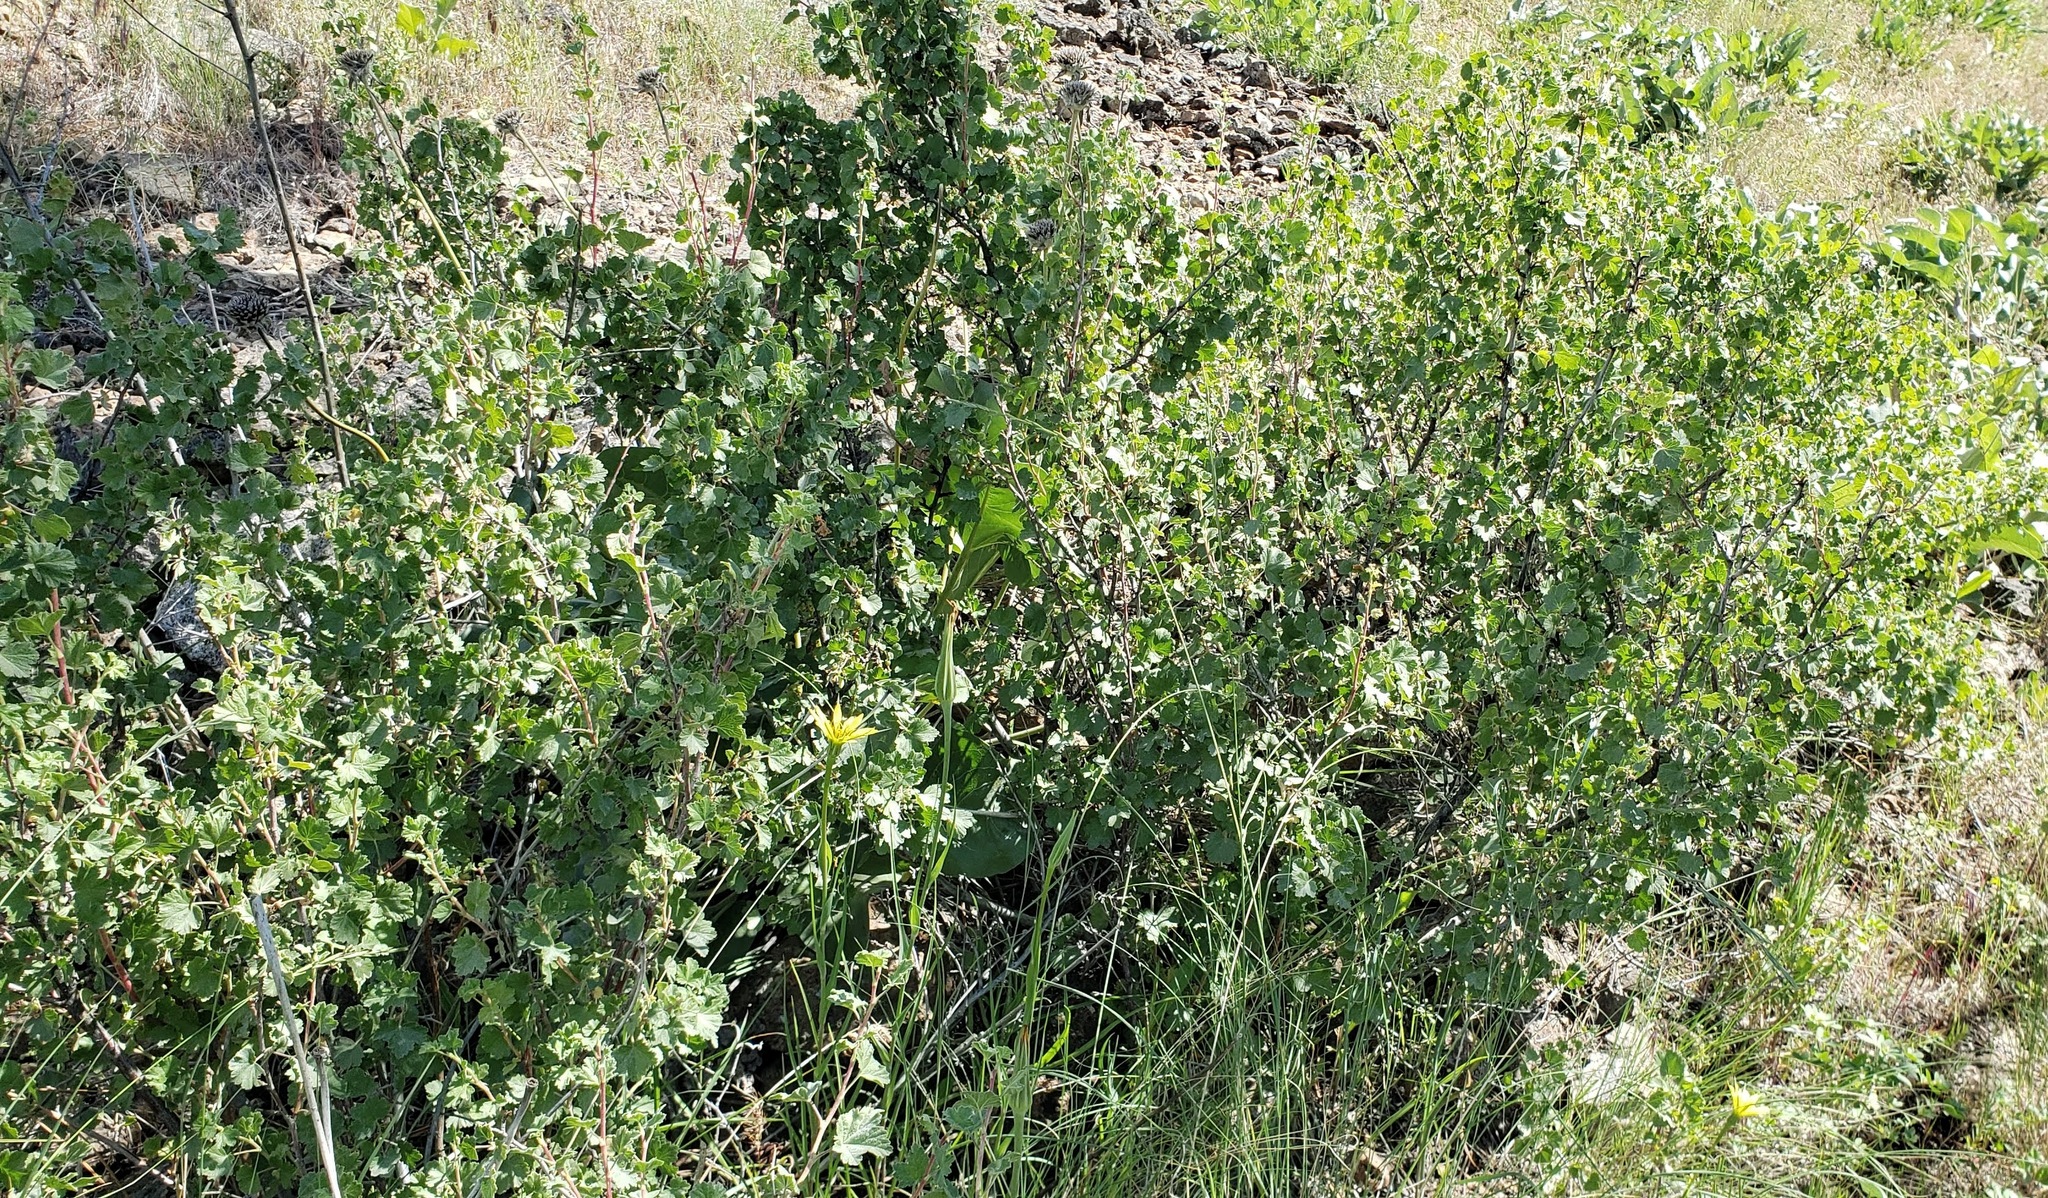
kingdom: Plantae
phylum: Tracheophyta
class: Magnoliopsida
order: Saxifragales
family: Grossulariaceae
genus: Ribes
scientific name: Ribes cereum
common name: Wax currant
